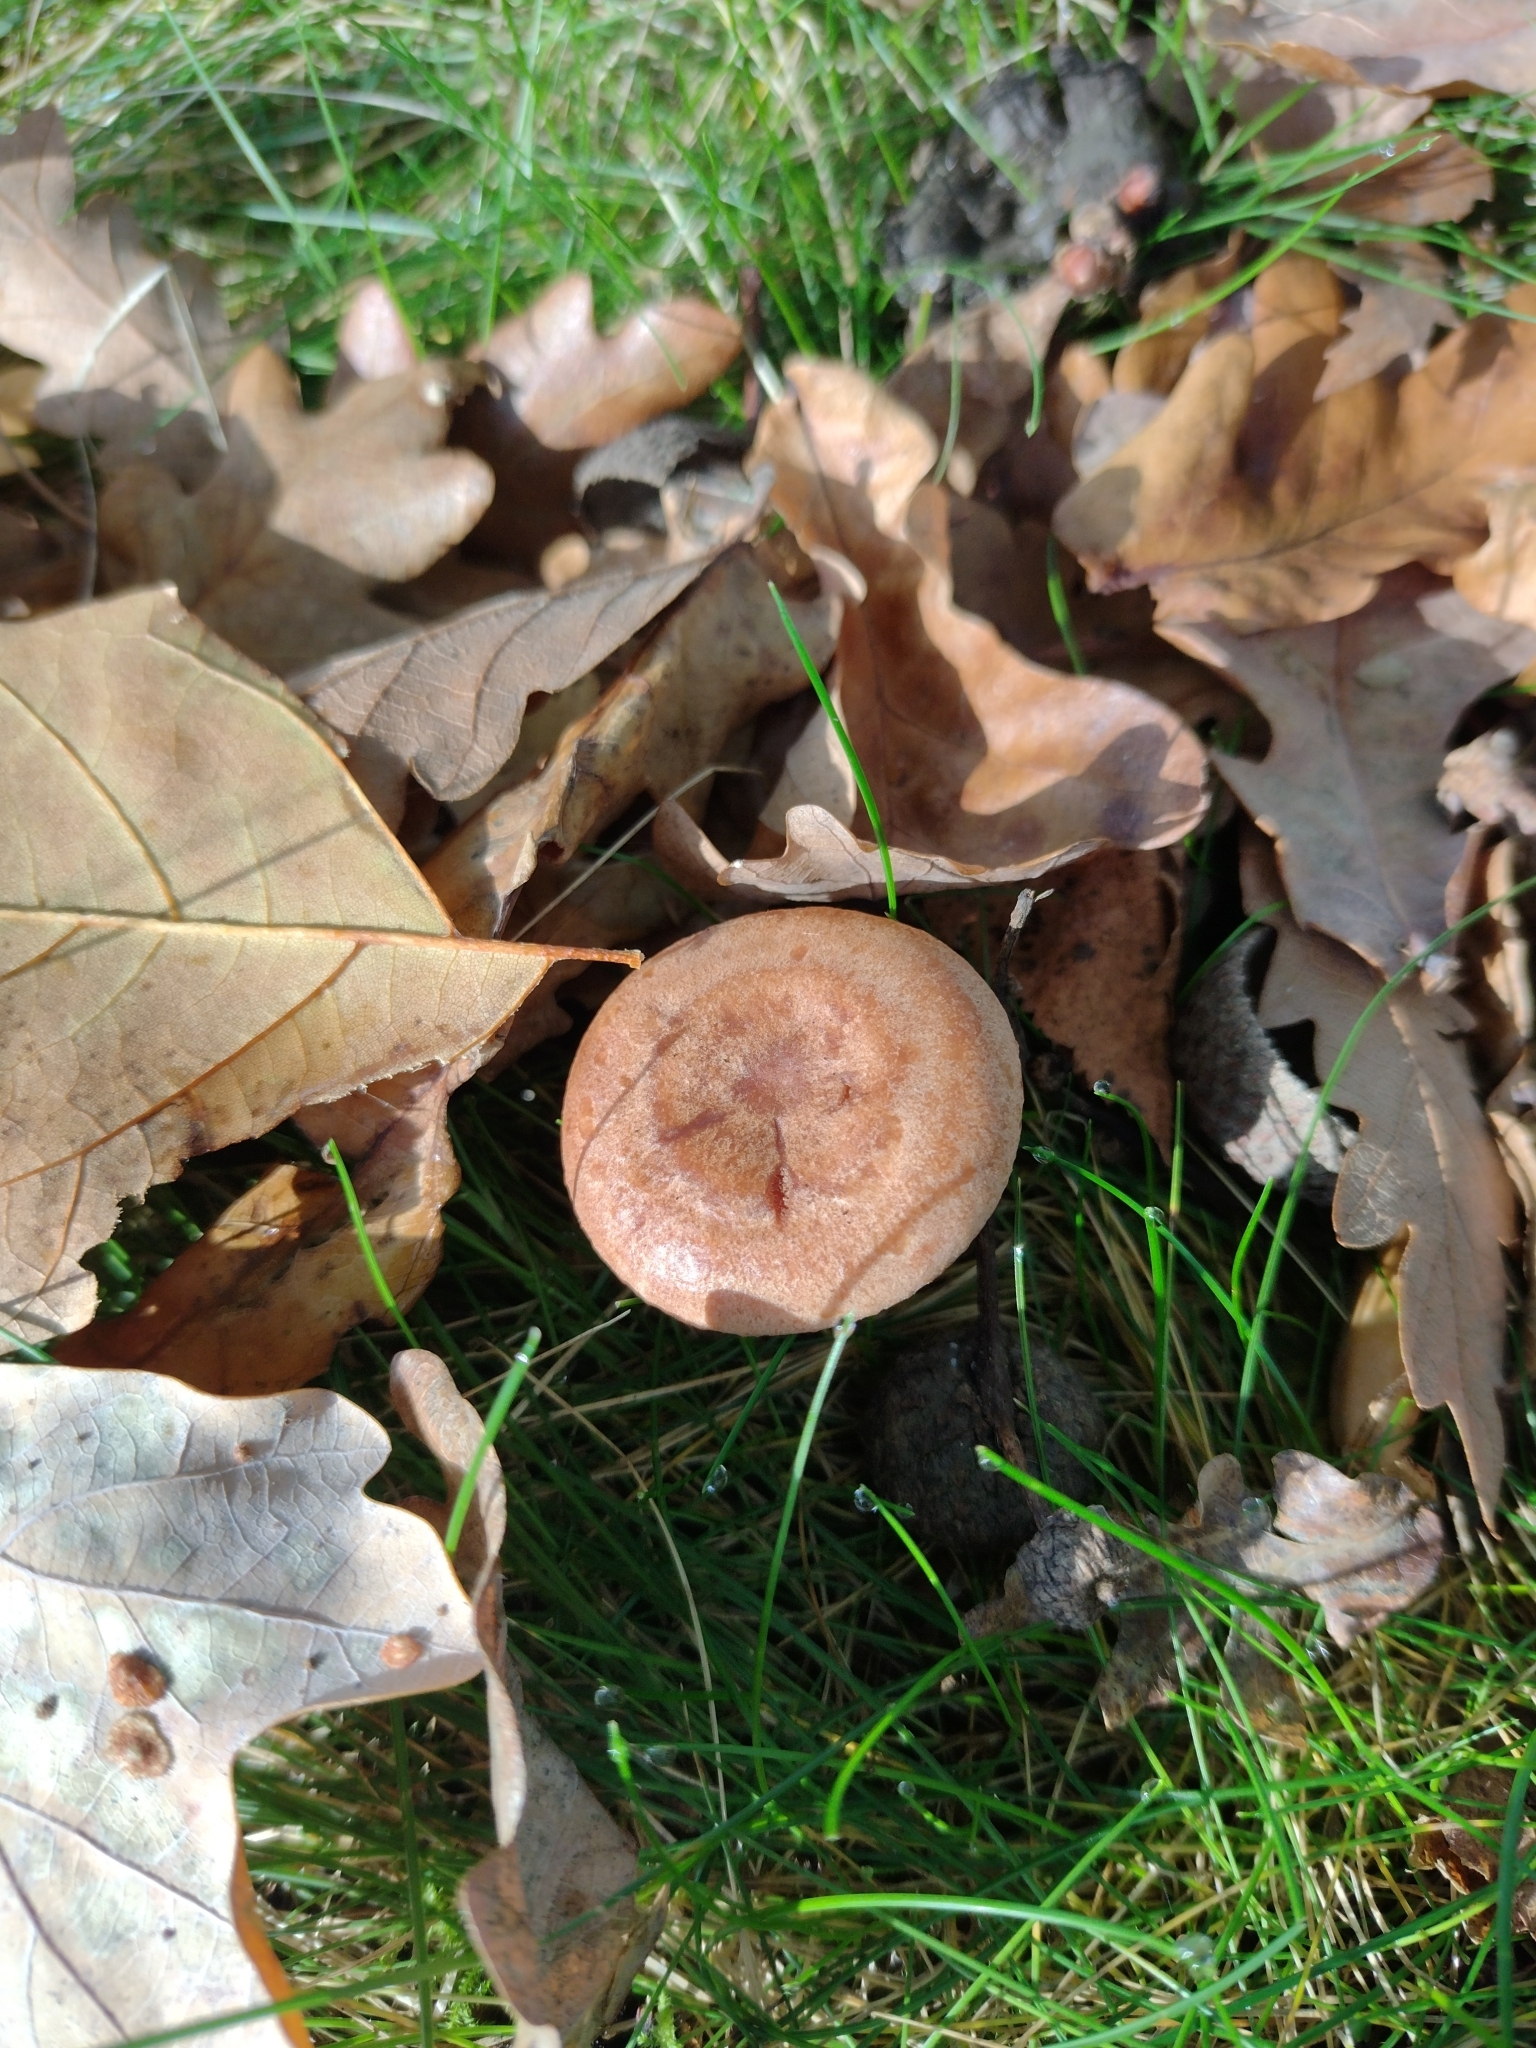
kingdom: Fungi
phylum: Basidiomycota
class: Agaricomycetes
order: Russulales
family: Russulaceae
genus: Lactarius
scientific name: Lactarius quietus
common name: Oak milk-cap
